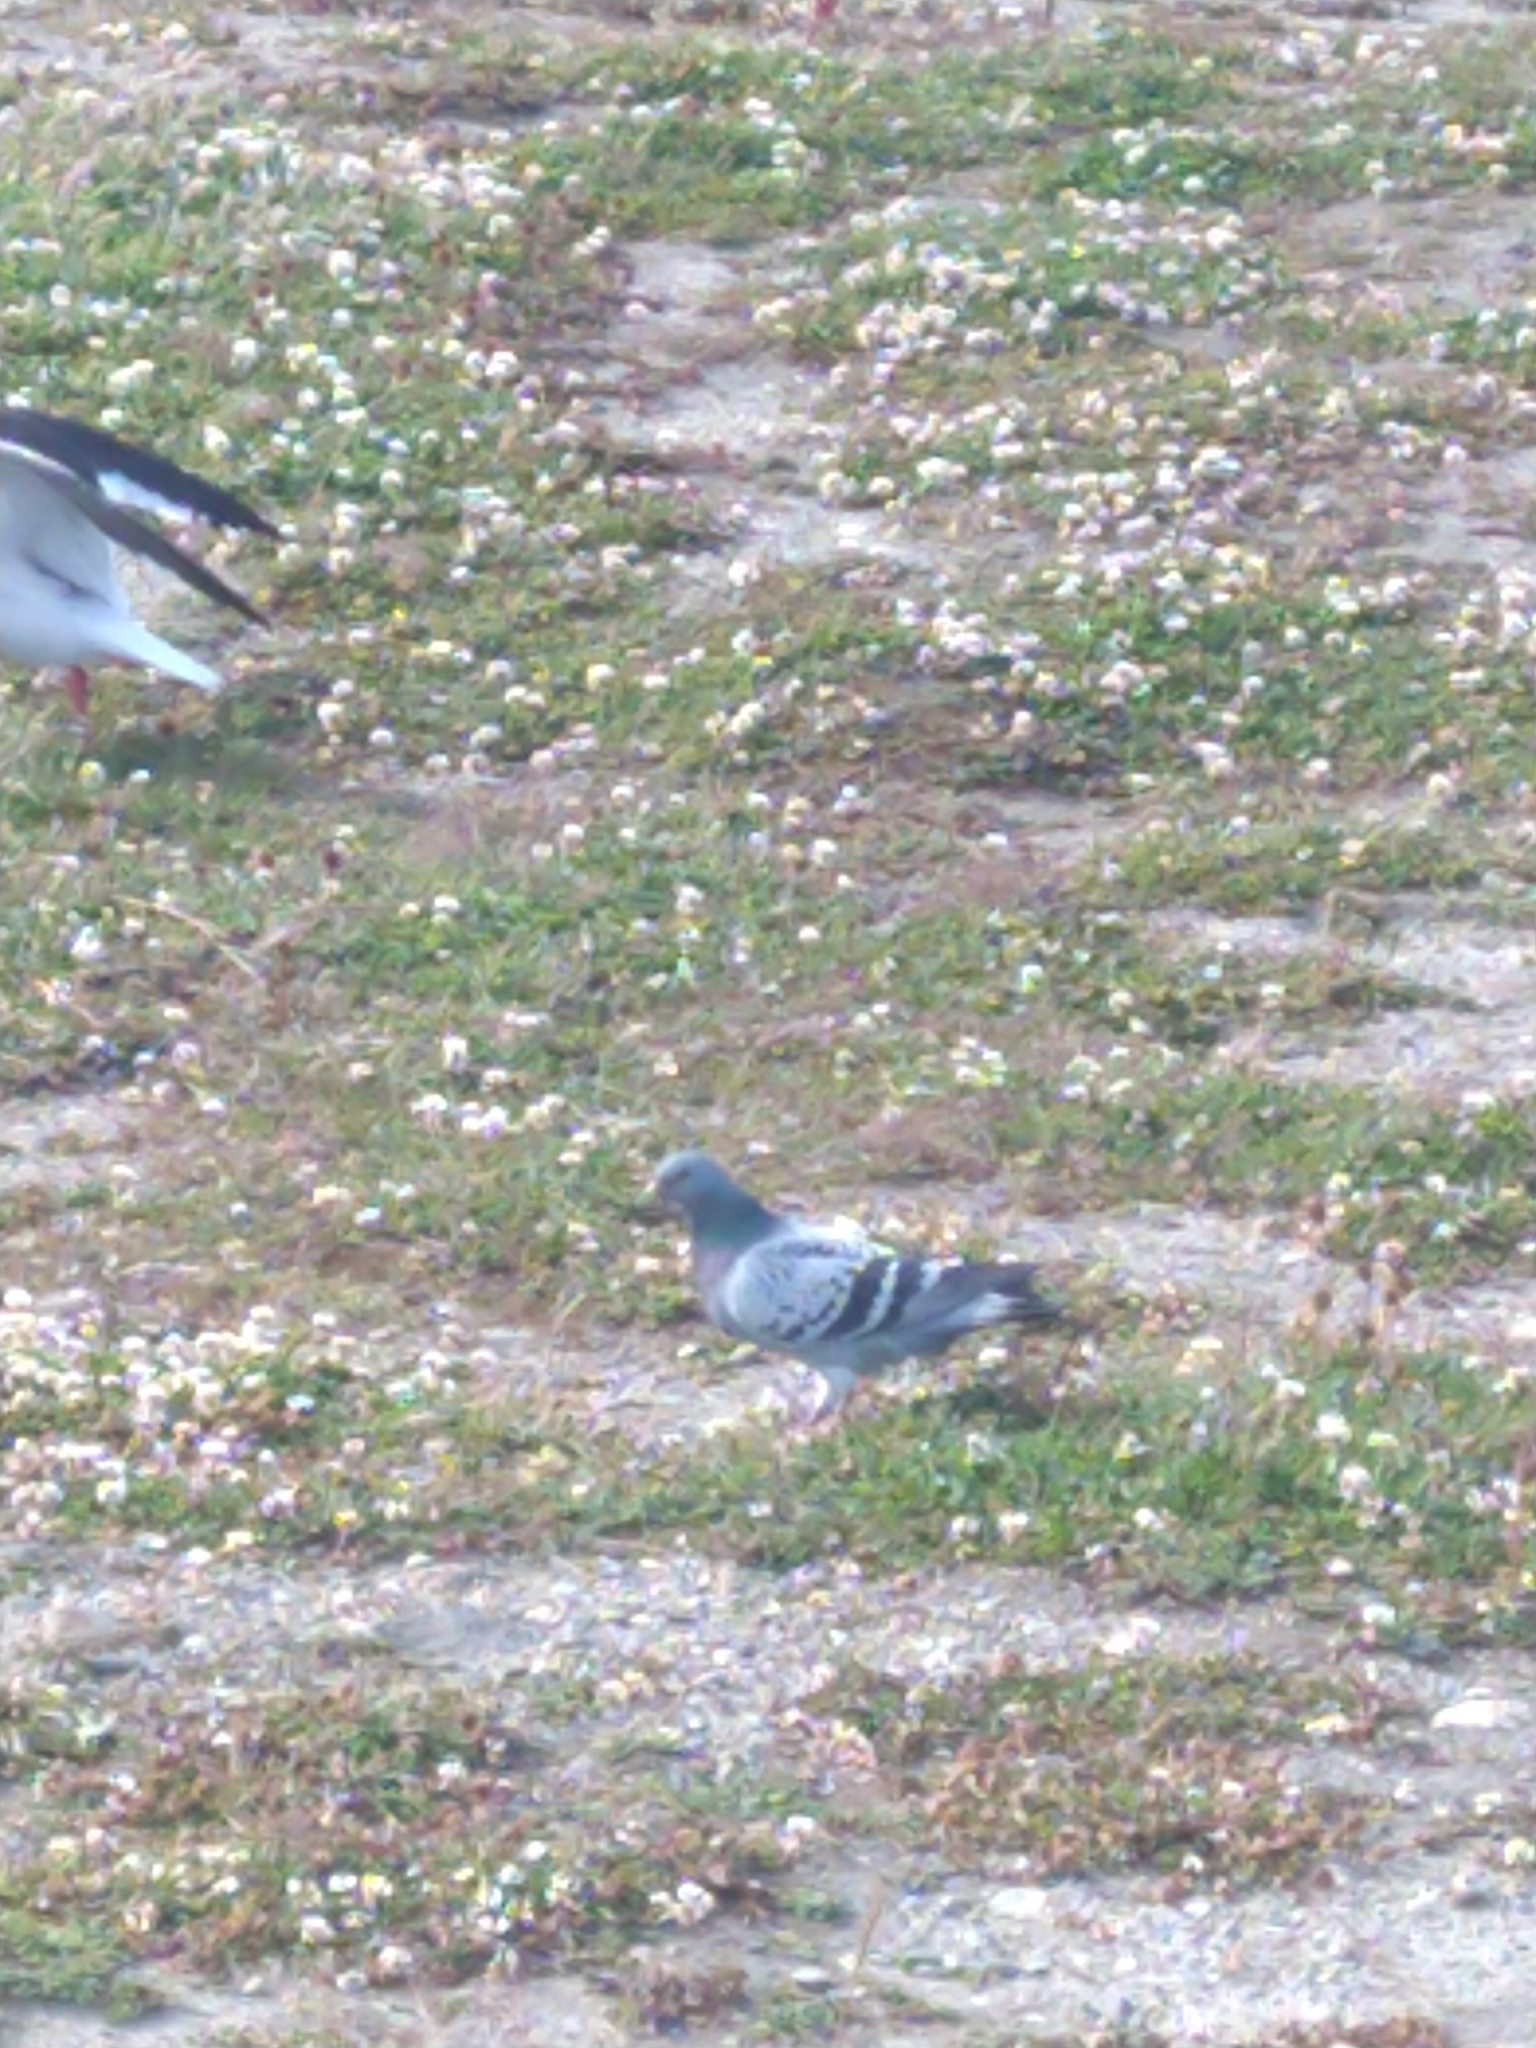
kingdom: Animalia
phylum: Chordata
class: Aves
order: Columbiformes
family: Columbidae
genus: Columba
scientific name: Columba livia
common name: Rock pigeon
